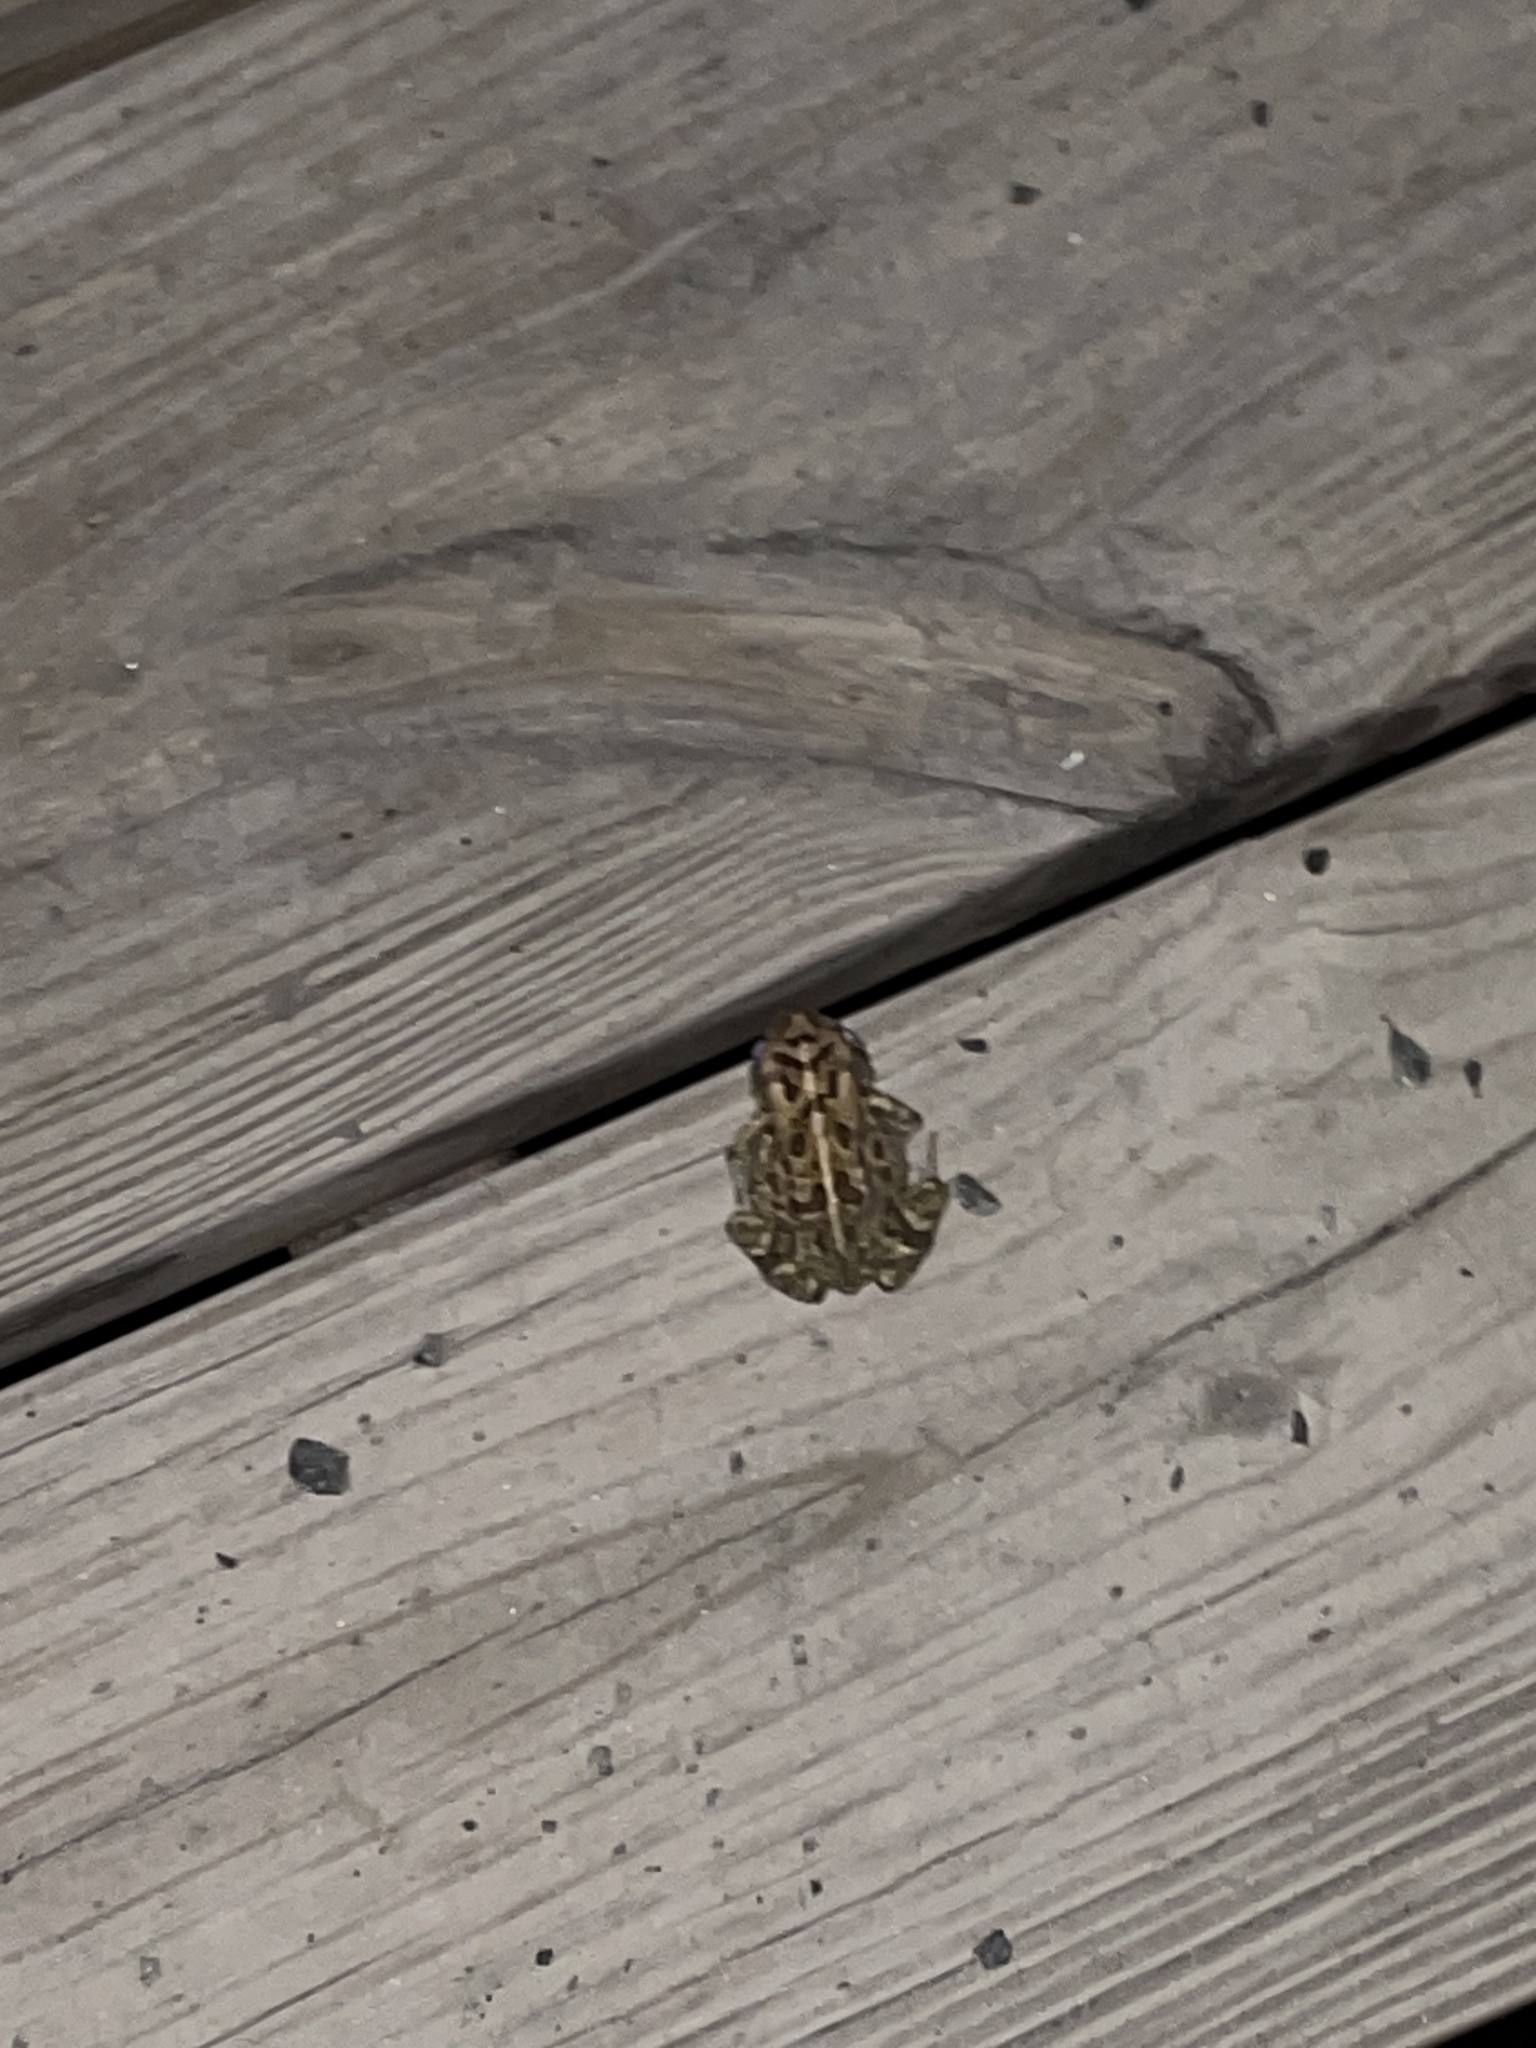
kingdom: Animalia
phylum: Chordata
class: Amphibia
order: Anura
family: Bufonidae
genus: Anaxyrus
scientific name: Anaxyrus fowleri
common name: Fowler's toad
